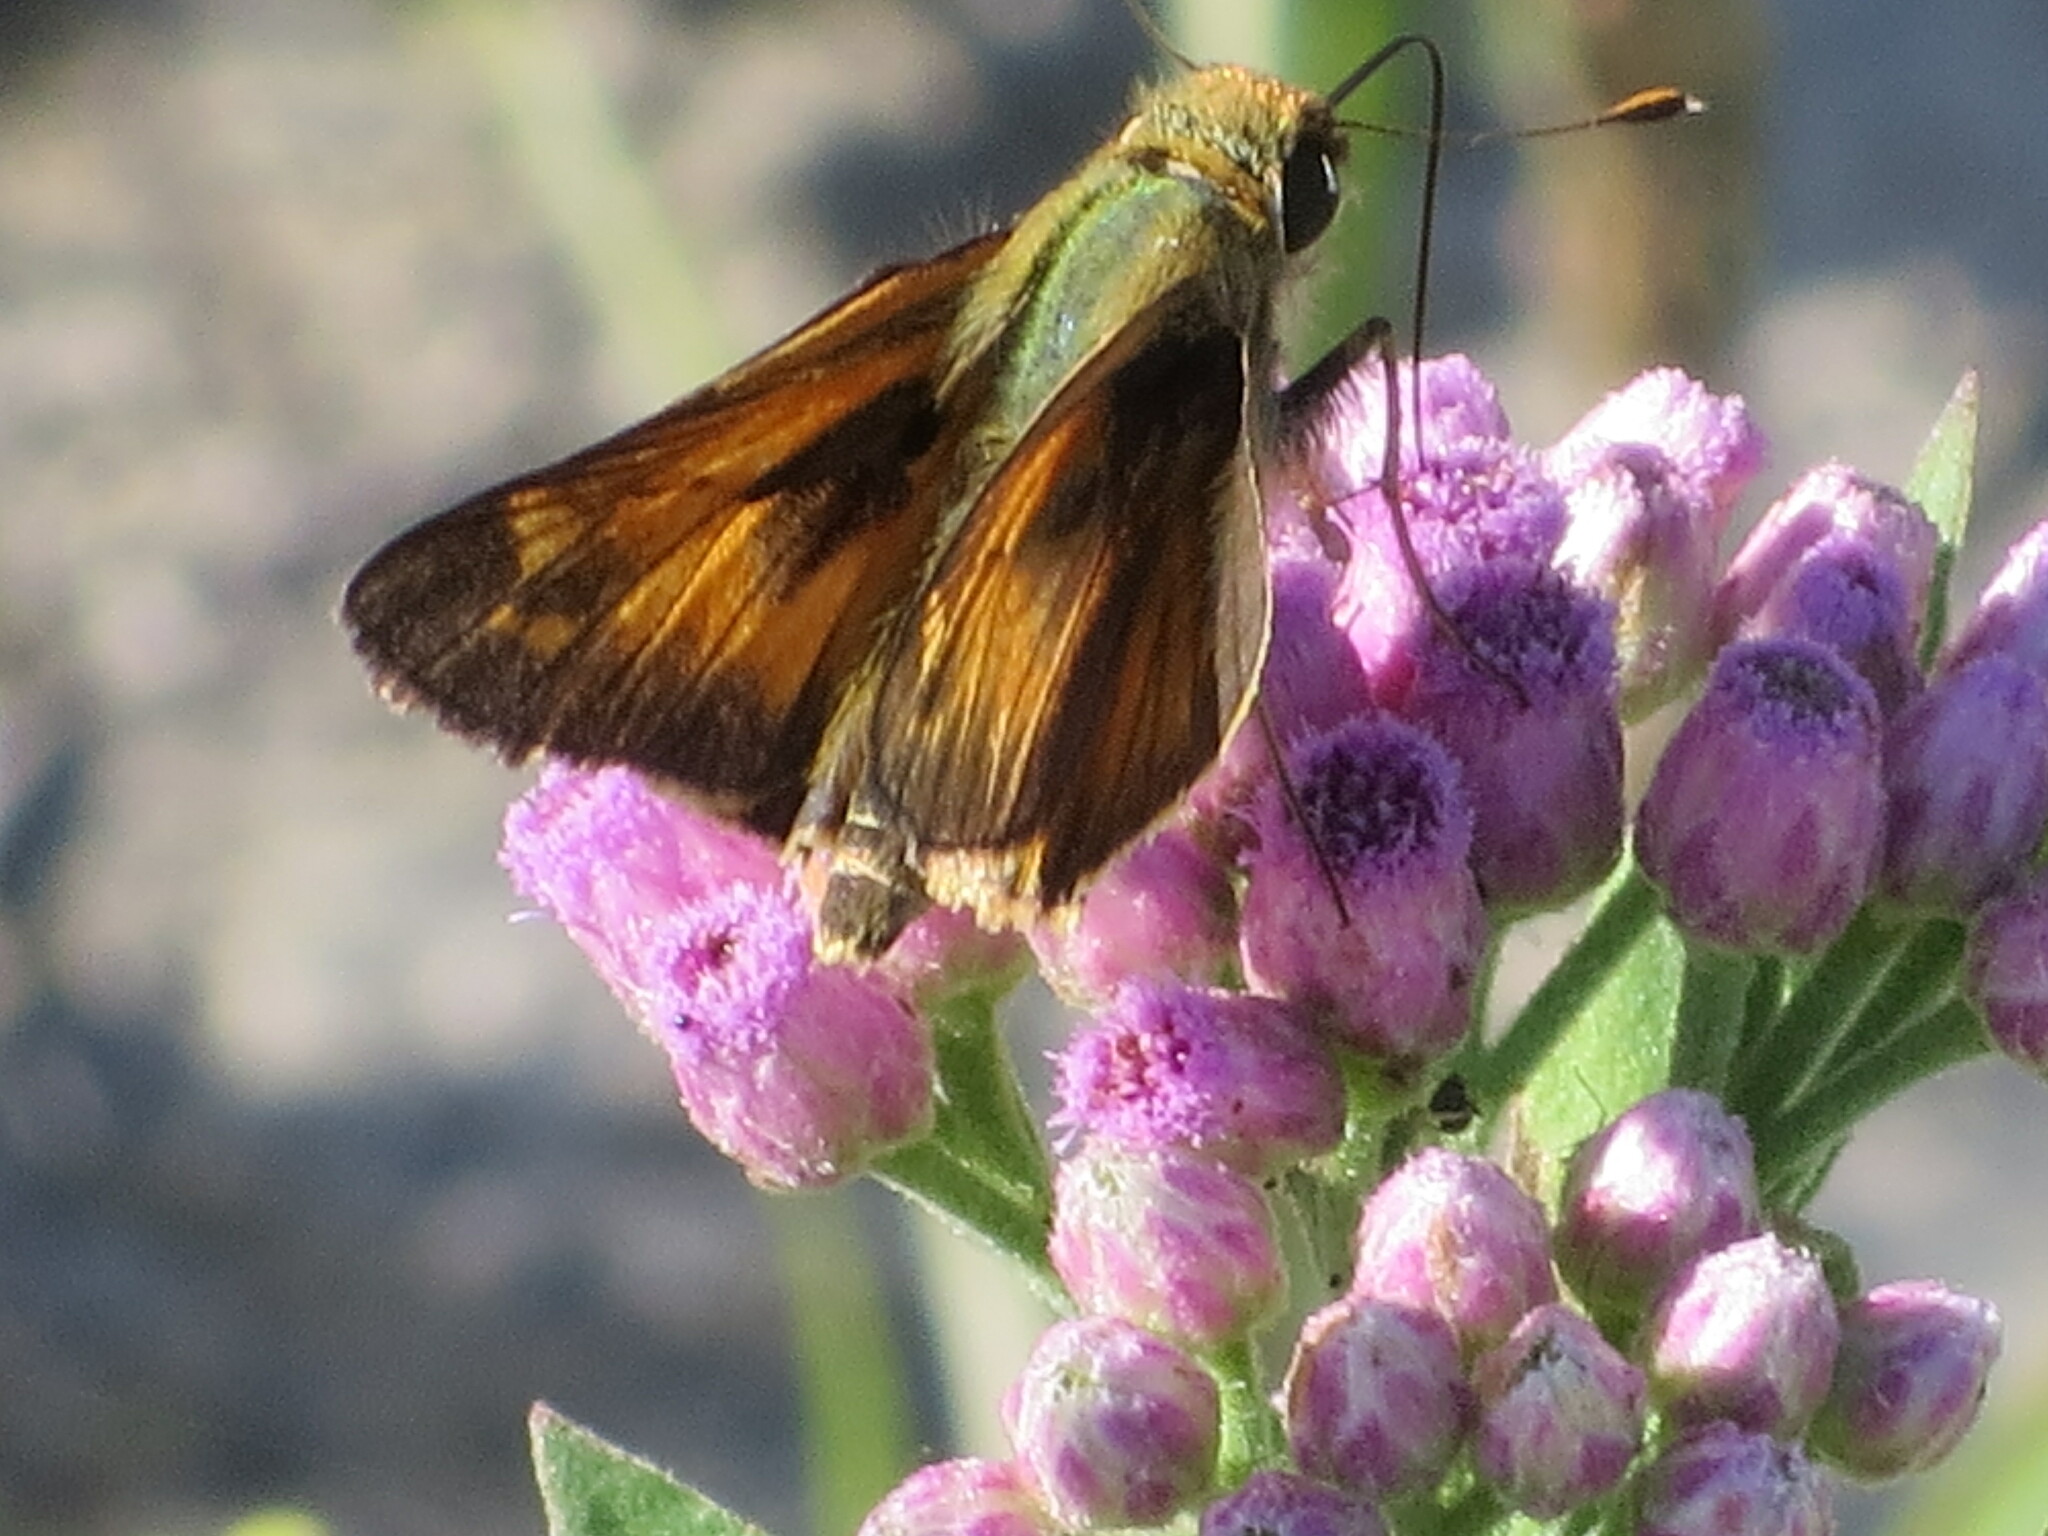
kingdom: Animalia
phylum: Arthropoda
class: Insecta
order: Lepidoptera
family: Hesperiidae
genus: Atalopedes
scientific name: Atalopedes
